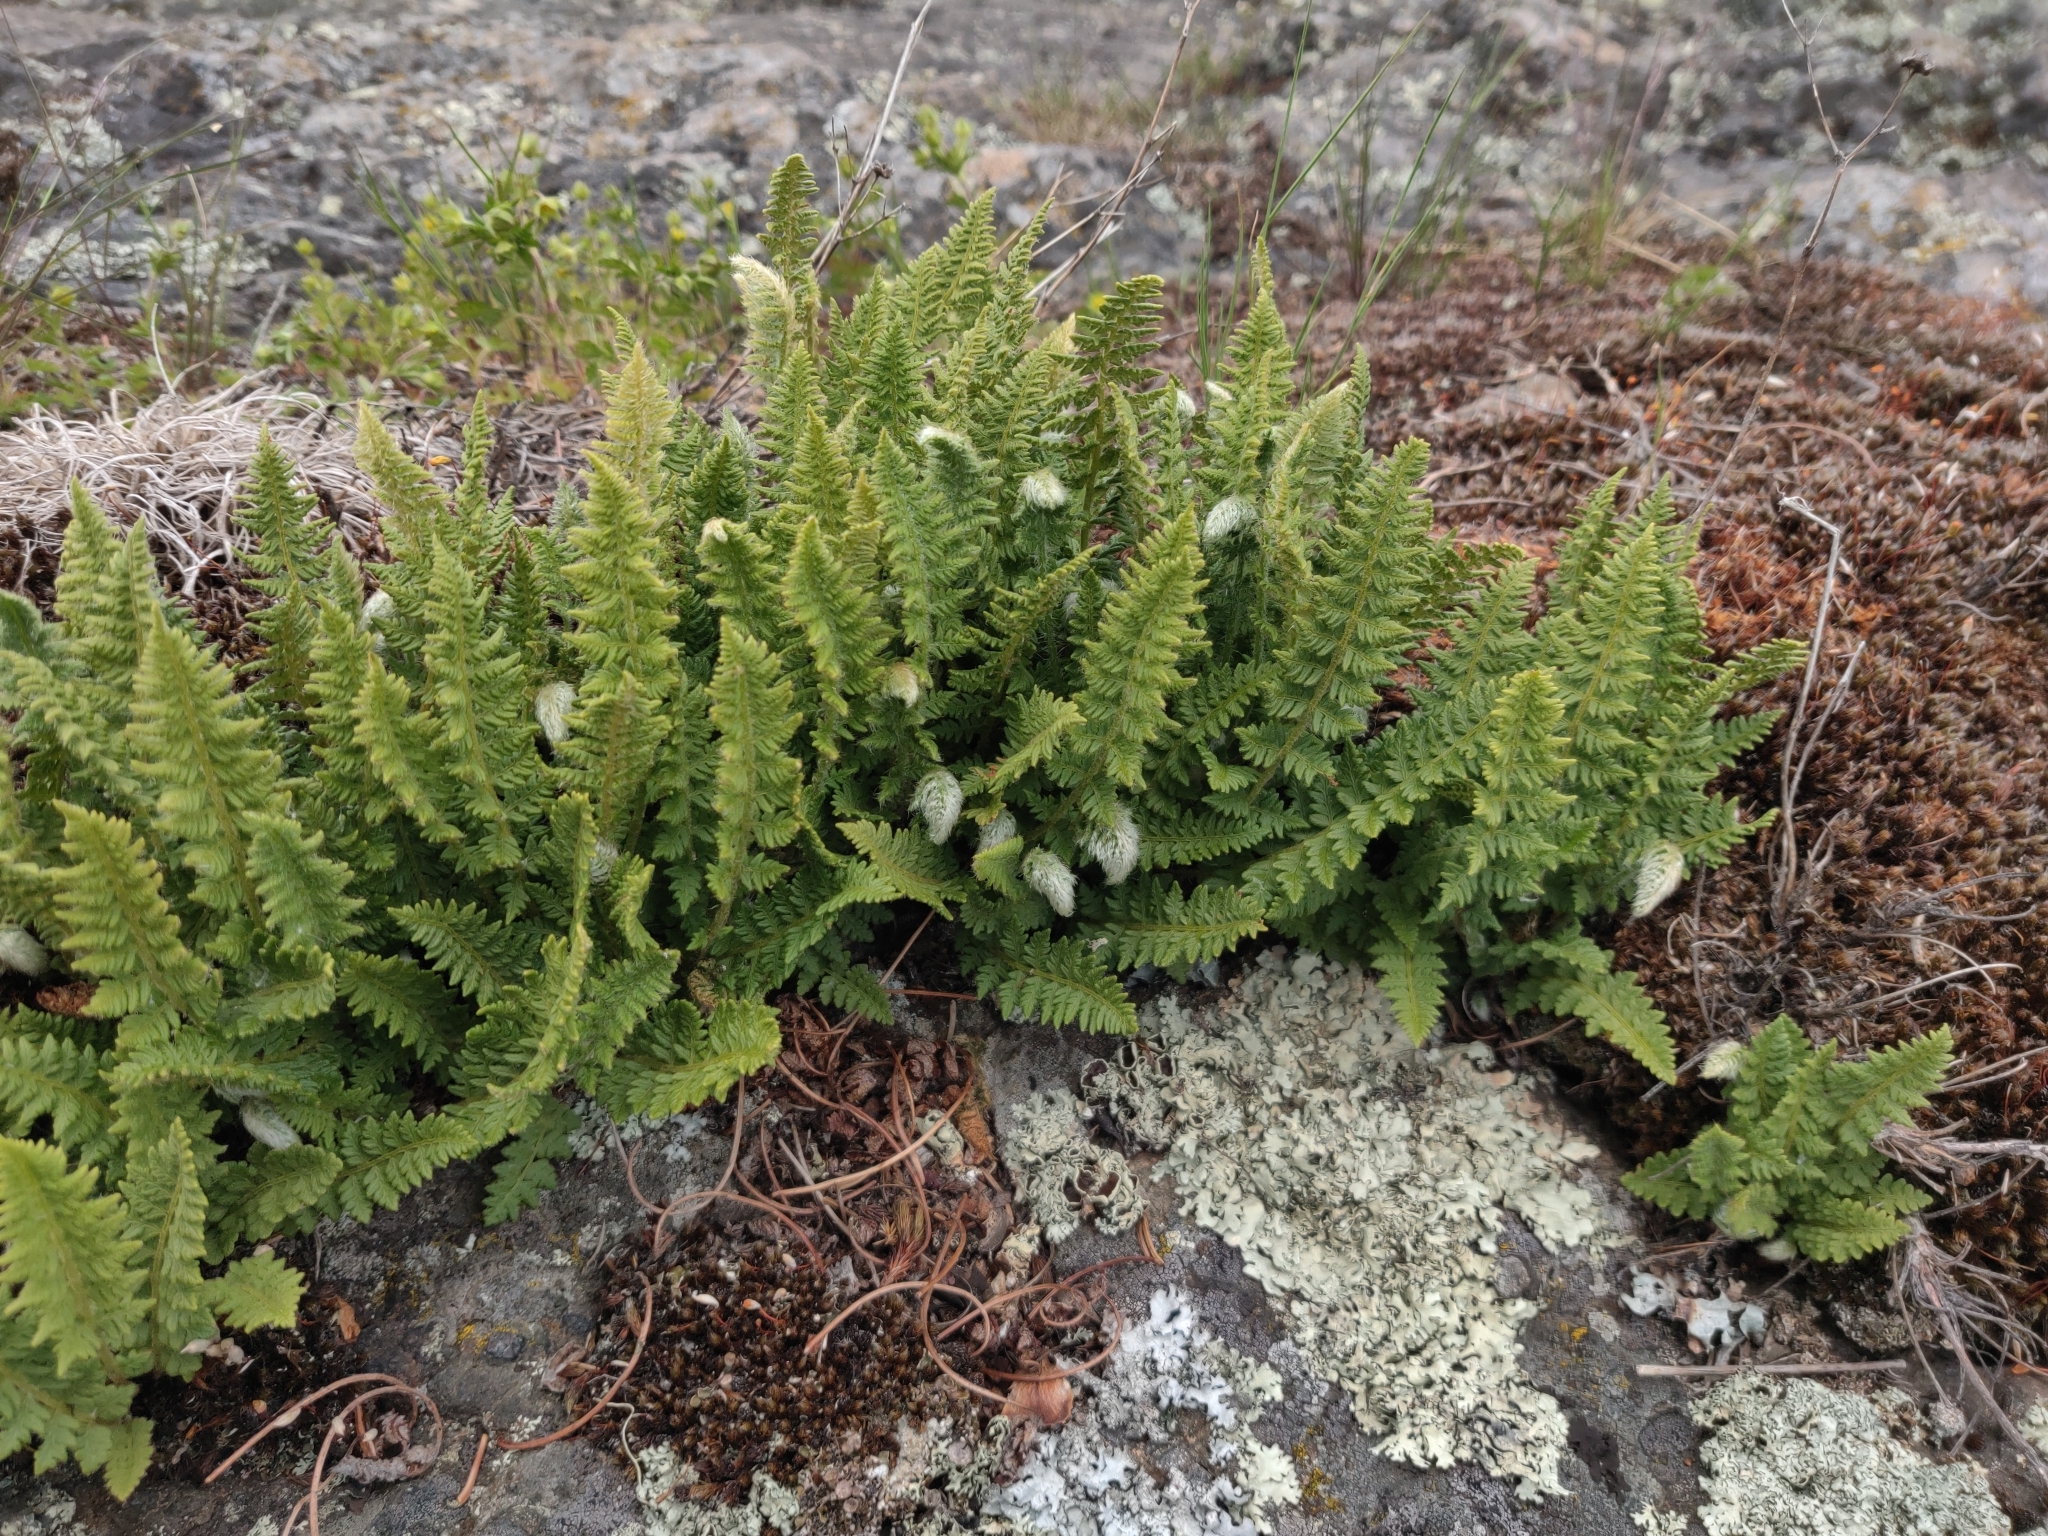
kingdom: Plantae
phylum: Tracheophyta
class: Polypodiopsida
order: Polypodiales
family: Woodsiaceae
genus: Woodsia
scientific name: Woodsia ilvensis
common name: Fragrant woodsia
